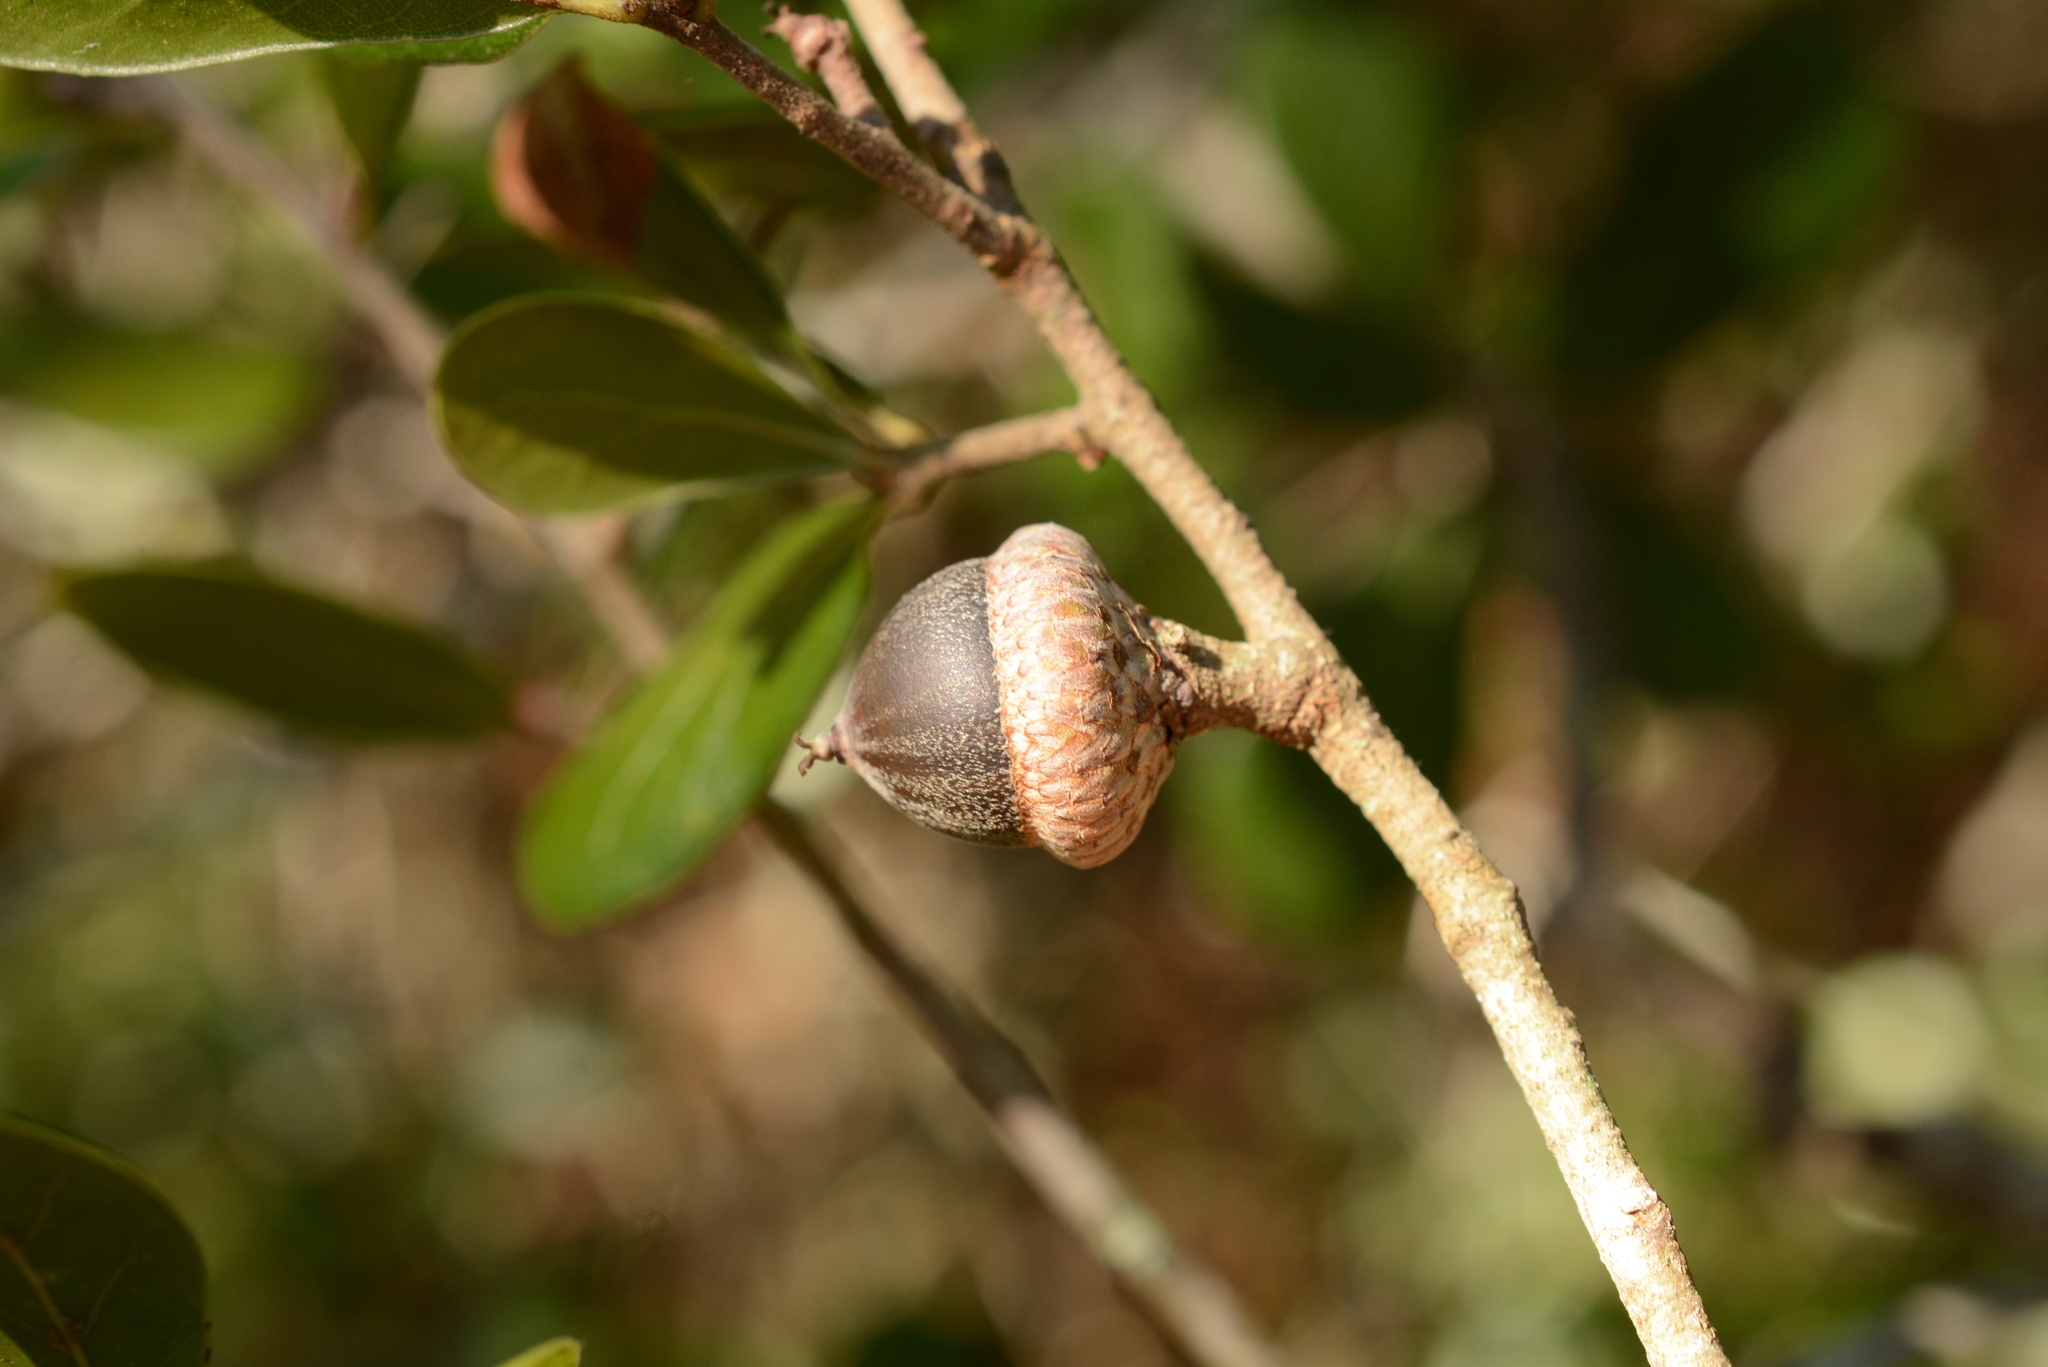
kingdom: Plantae
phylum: Tracheophyta
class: Magnoliopsida
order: Fagales
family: Fagaceae
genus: Quercus
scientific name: Quercus myrtifolia
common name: Myrtle oak
